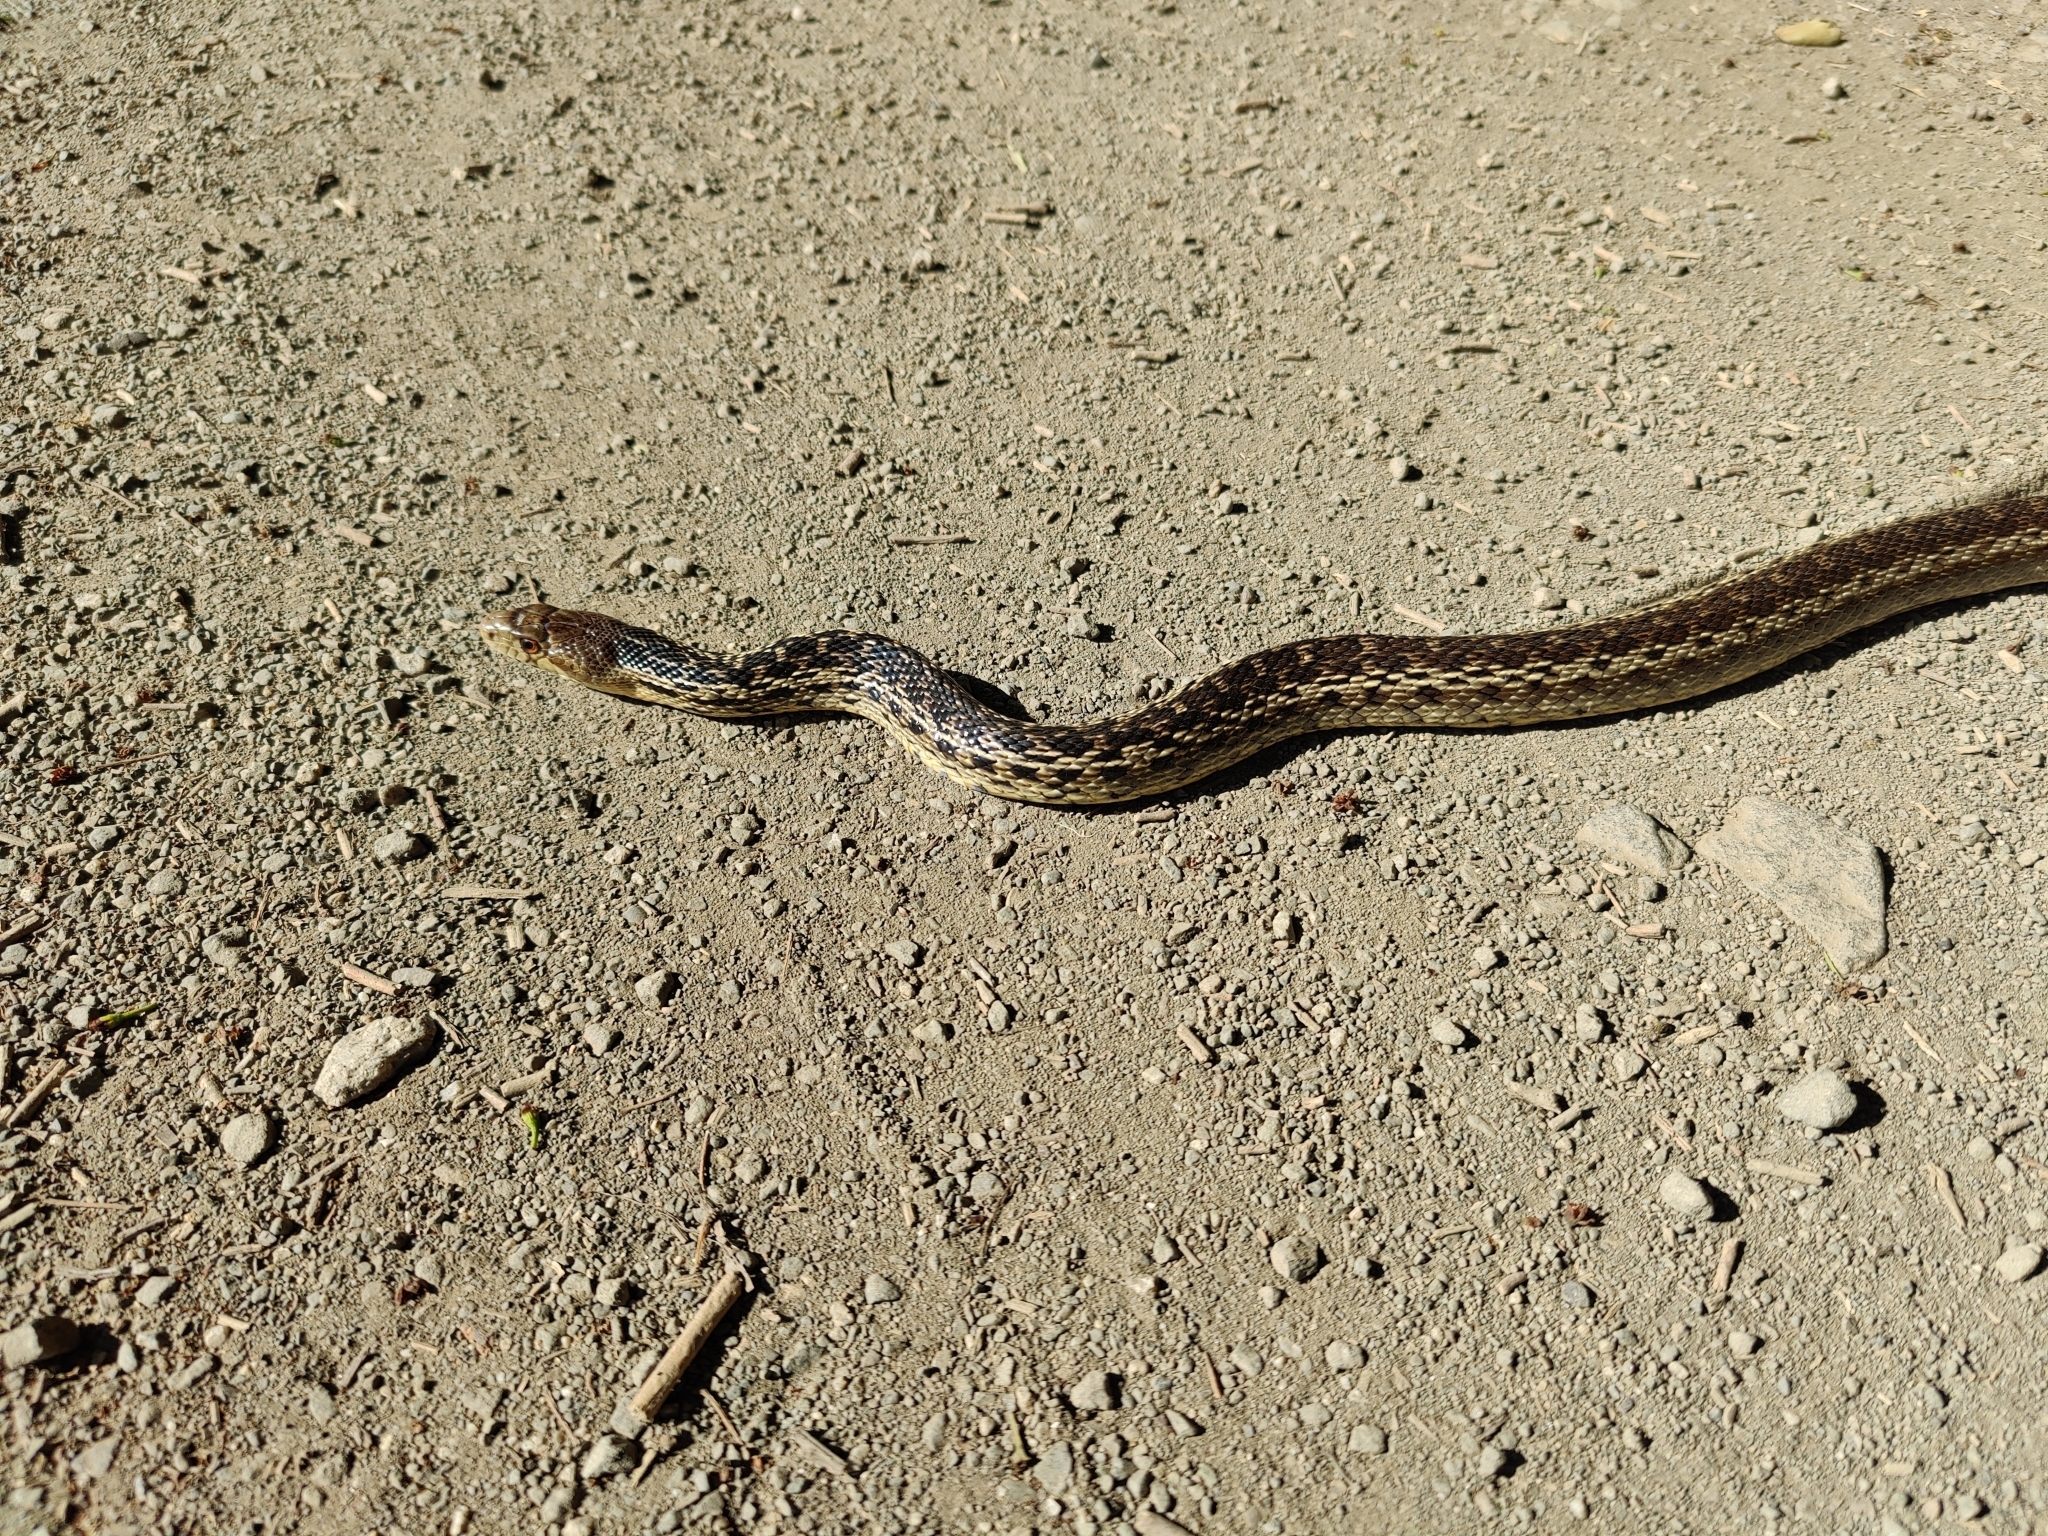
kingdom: Animalia
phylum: Chordata
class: Squamata
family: Colubridae
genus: Pituophis
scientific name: Pituophis catenifer
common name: Gopher snake
